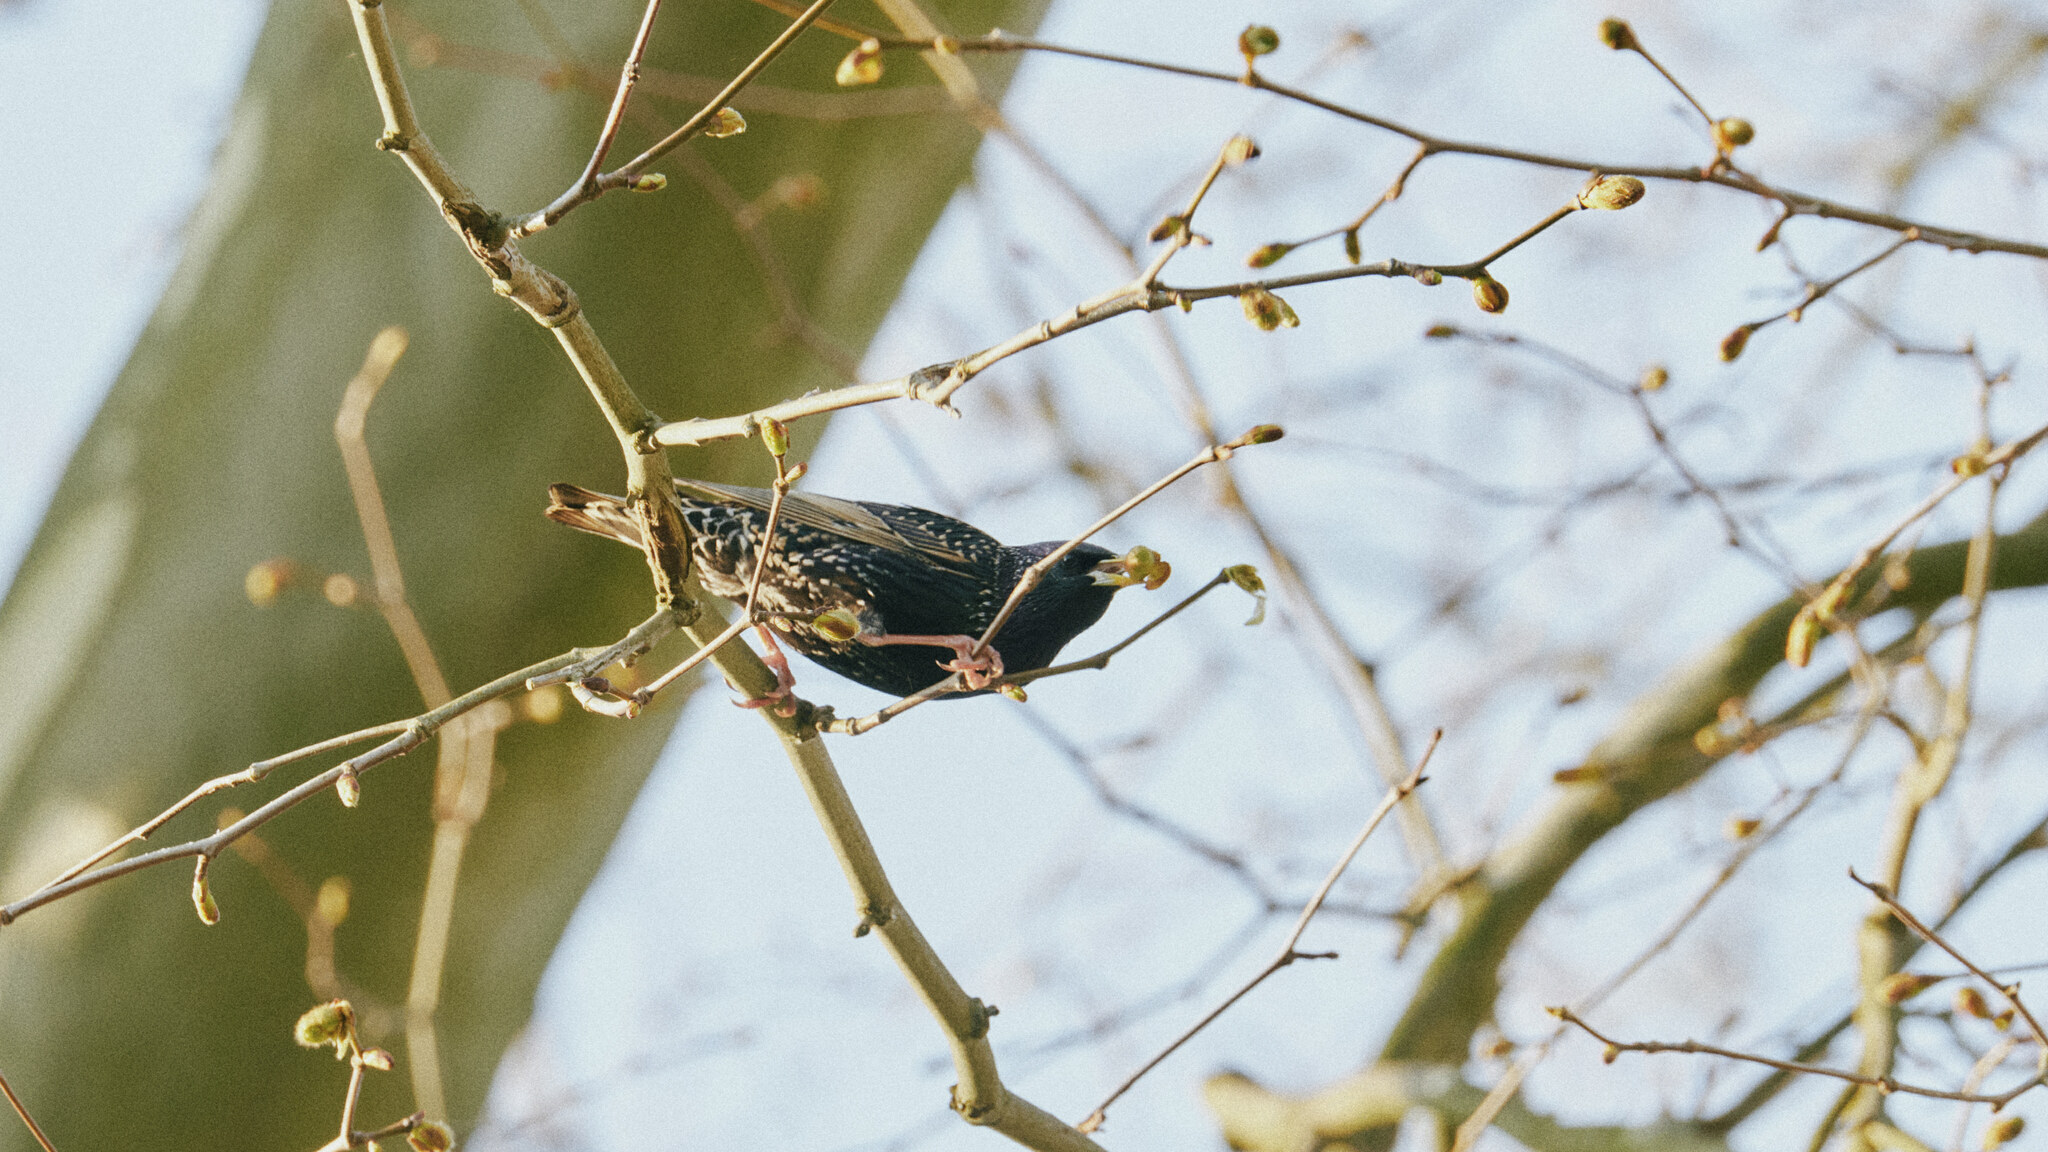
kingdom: Animalia
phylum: Chordata
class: Aves
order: Passeriformes
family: Sturnidae
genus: Sturnus
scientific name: Sturnus vulgaris
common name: Common starling
